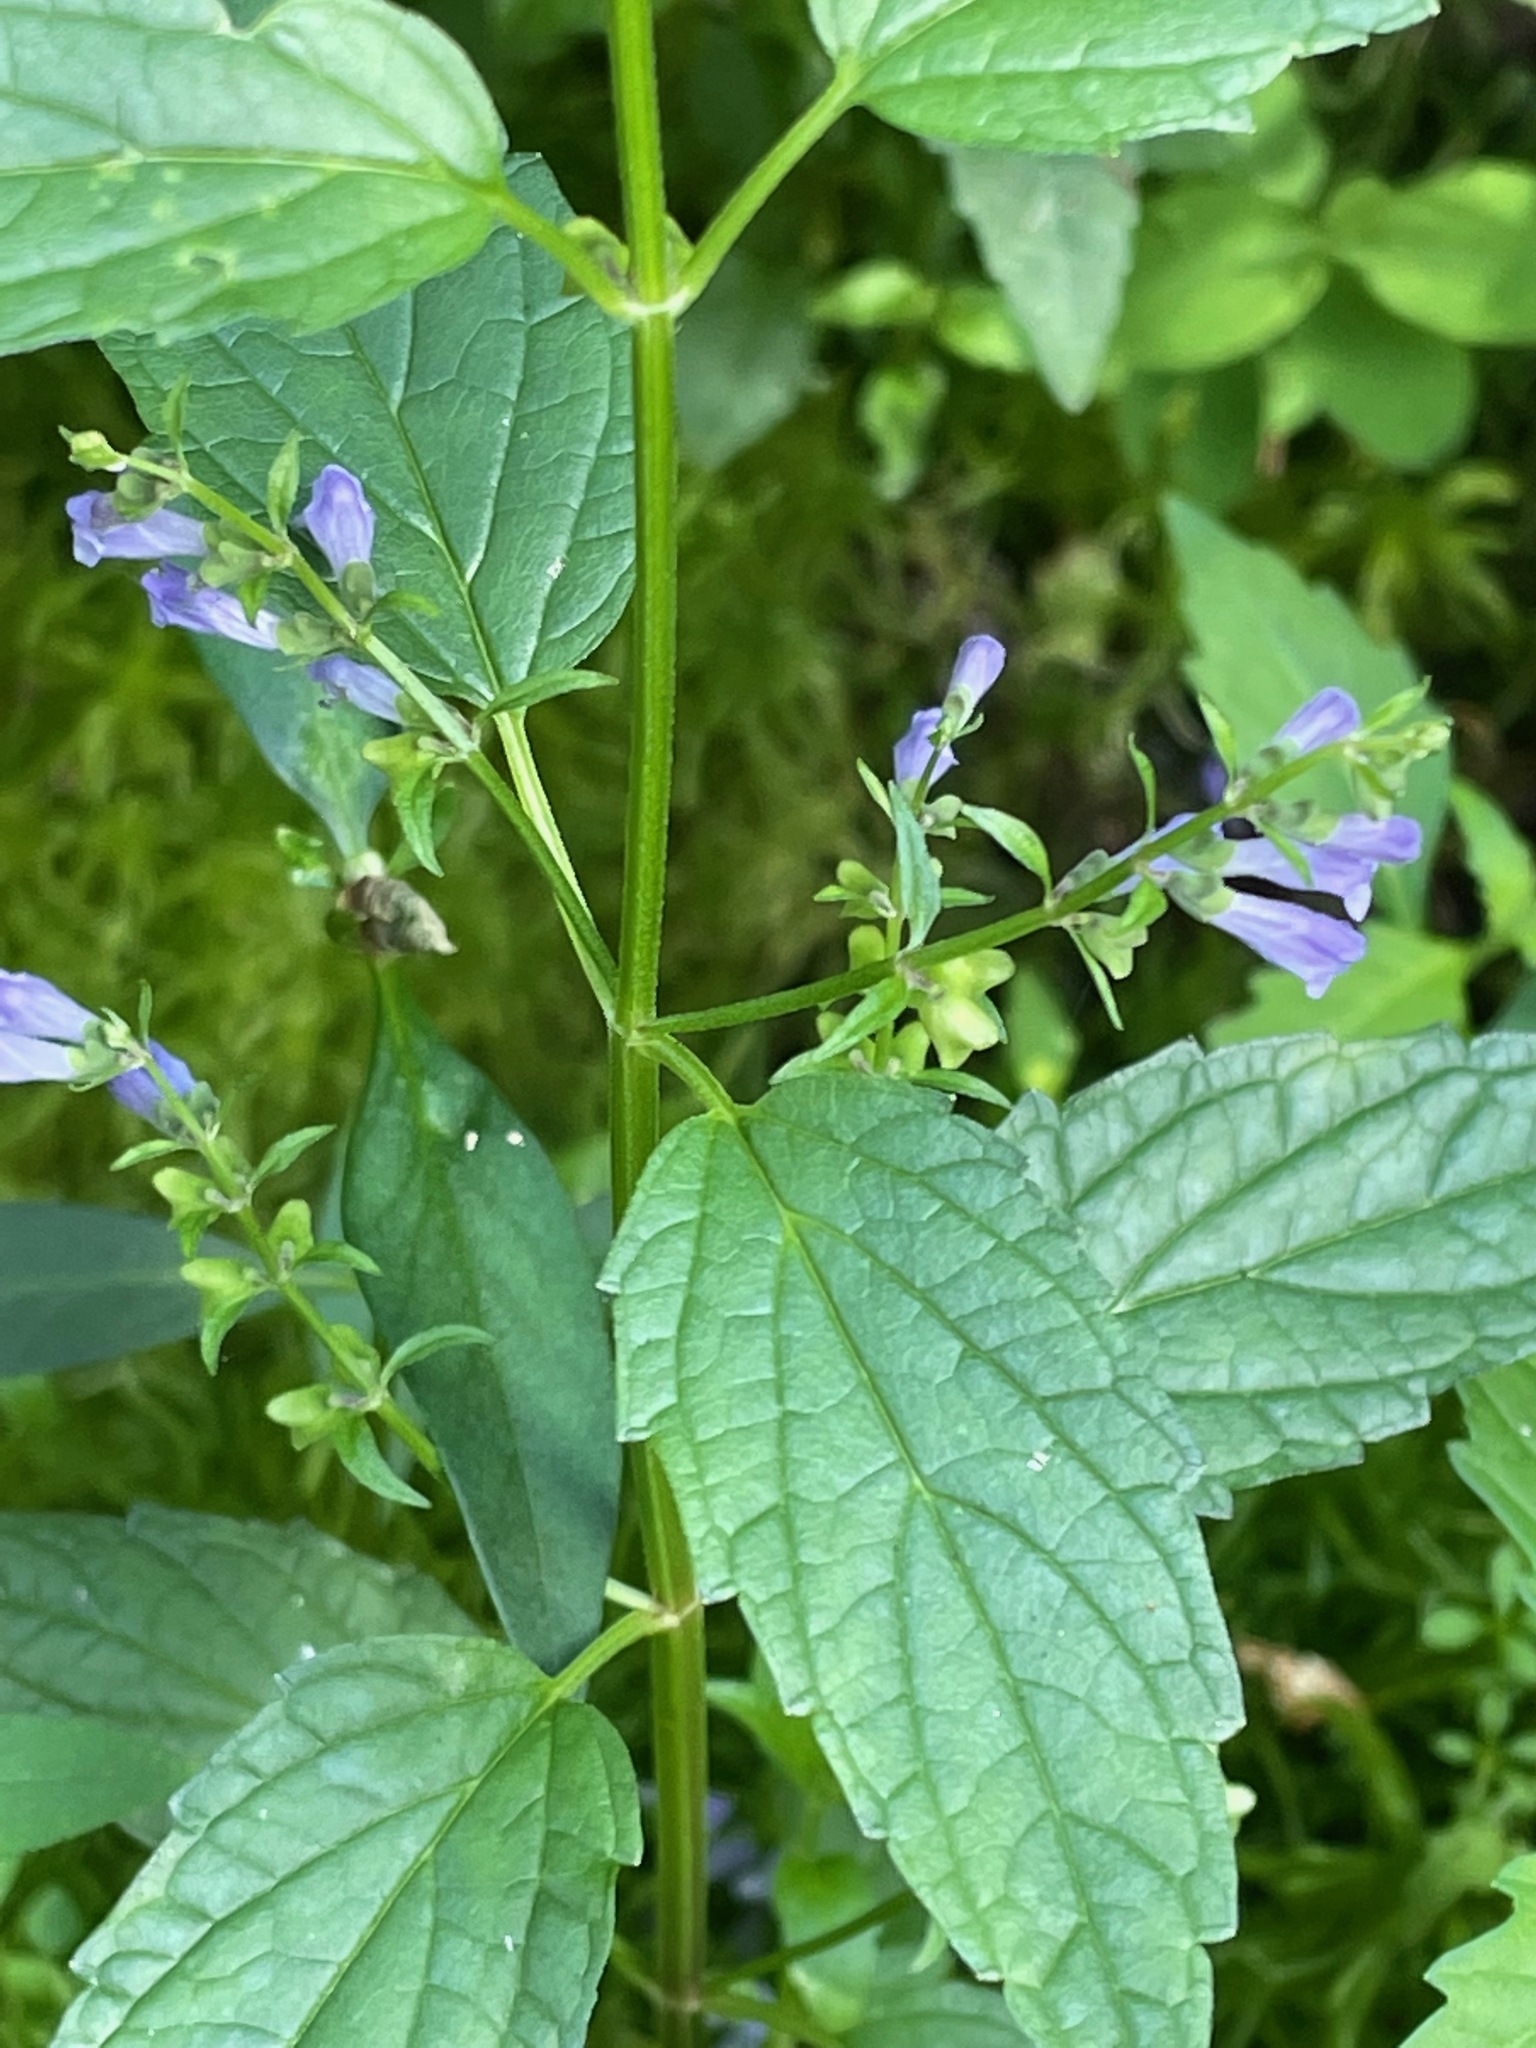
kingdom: Plantae
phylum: Tracheophyta
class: Magnoliopsida
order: Lamiales
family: Lamiaceae
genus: Scutellaria
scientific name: Scutellaria lateriflora
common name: Blue skullcap
